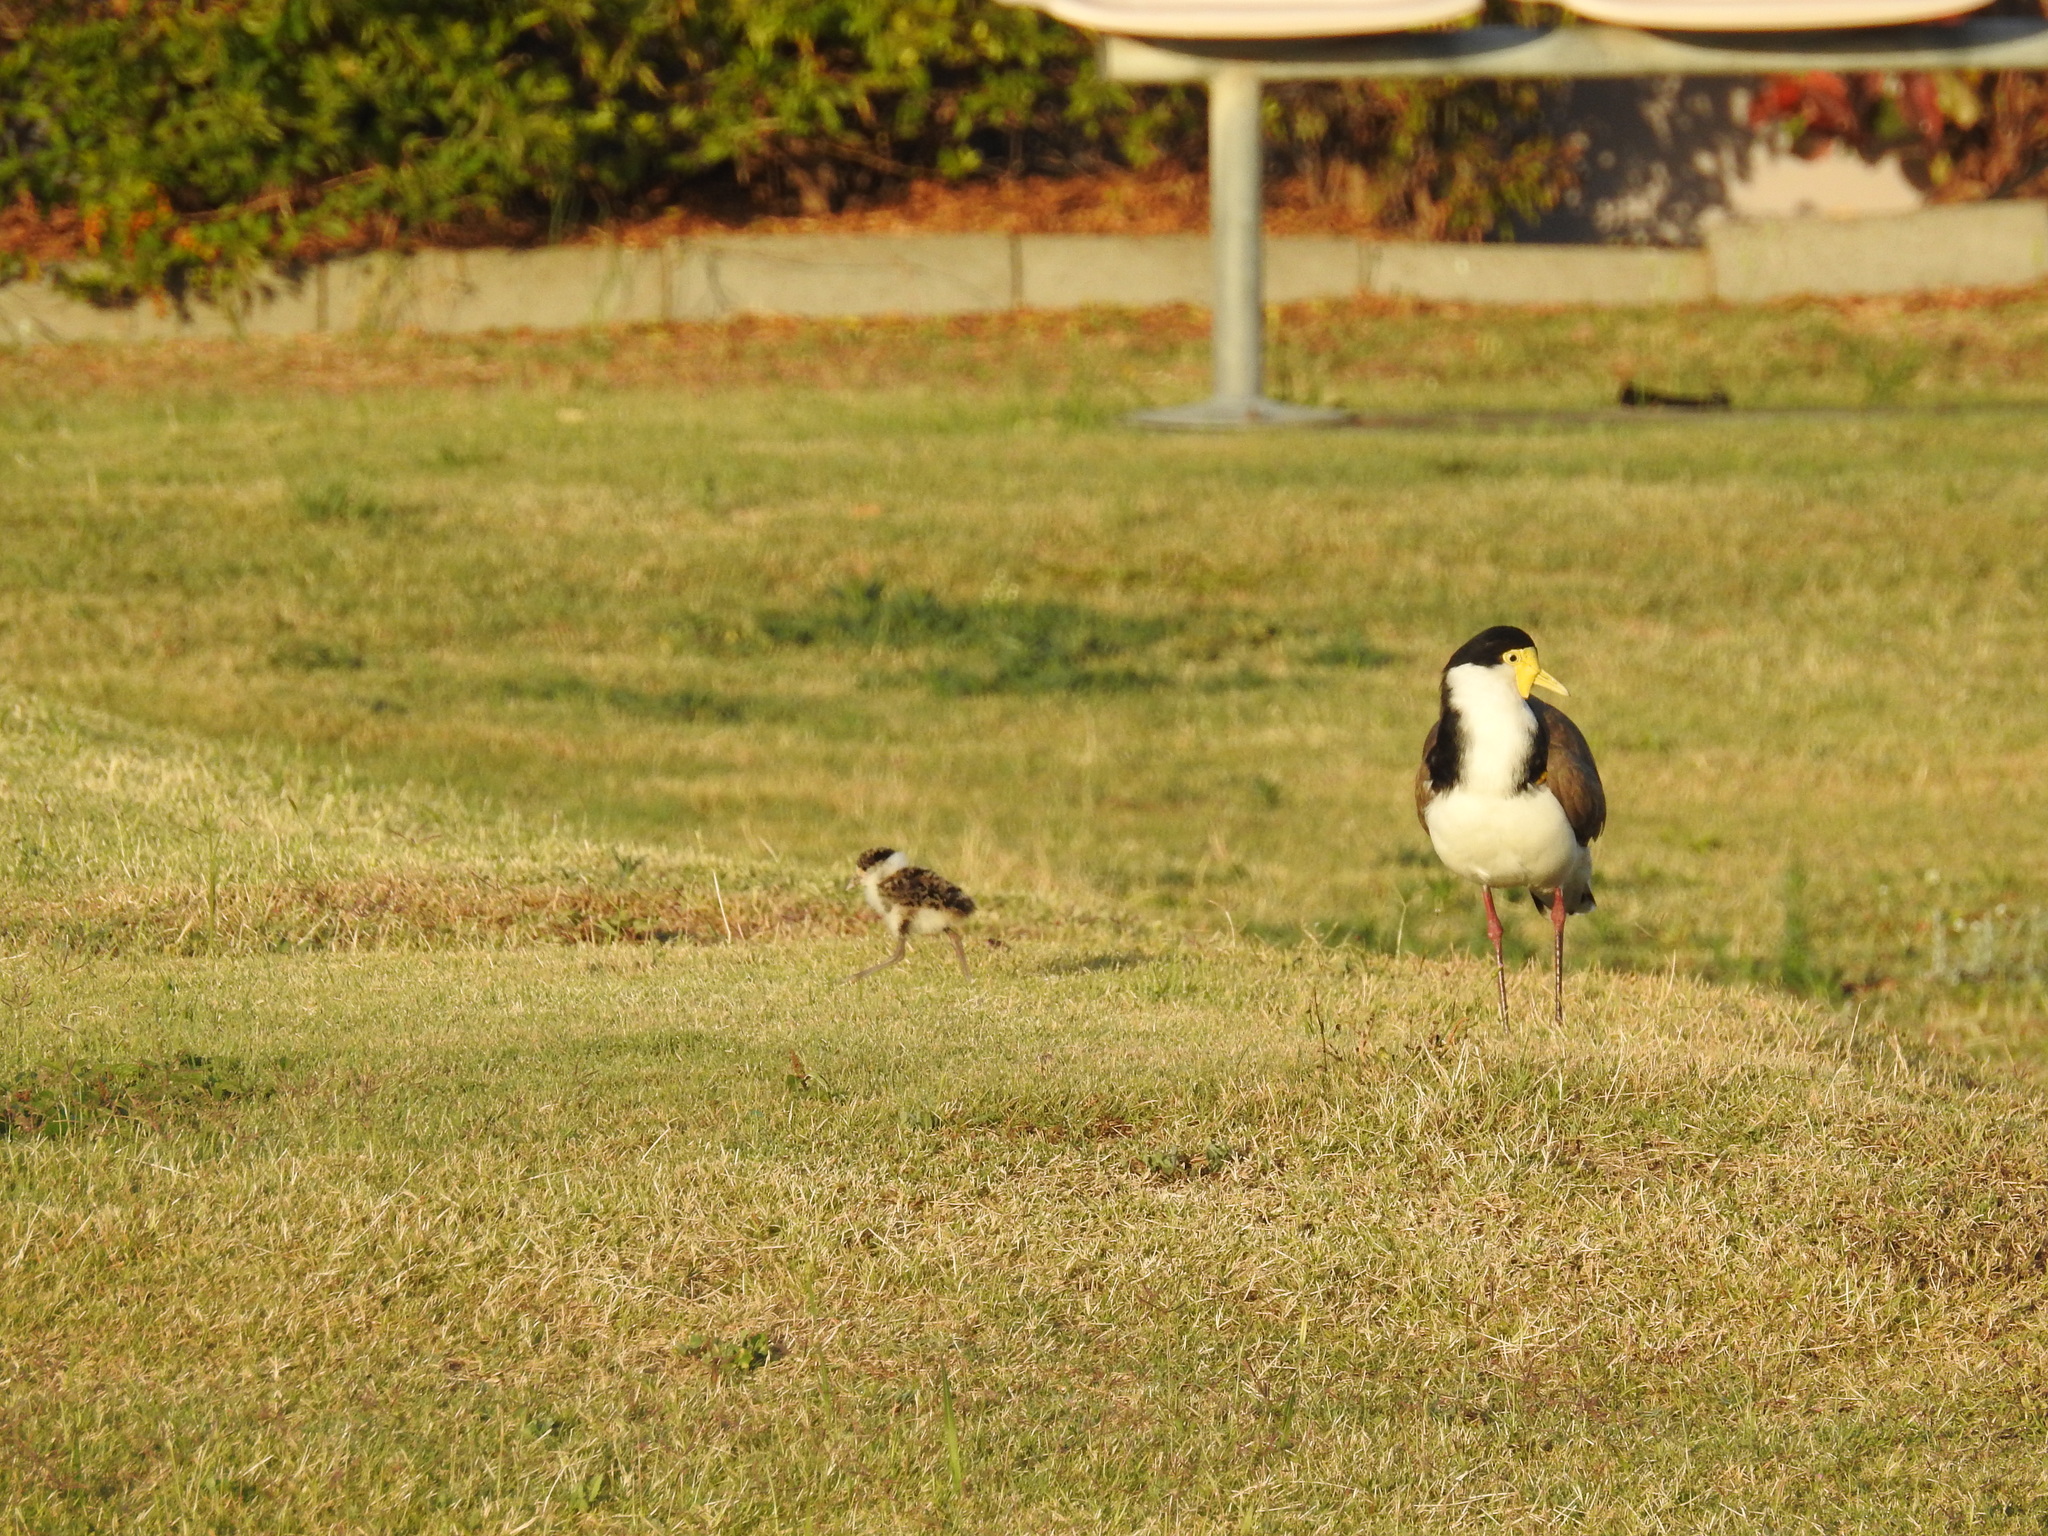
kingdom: Animalia
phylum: Chordata
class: Aves
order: Charadriiformes
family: Charadriidae
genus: Vanellus
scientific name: Vanellus miles
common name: Masked lapwing
